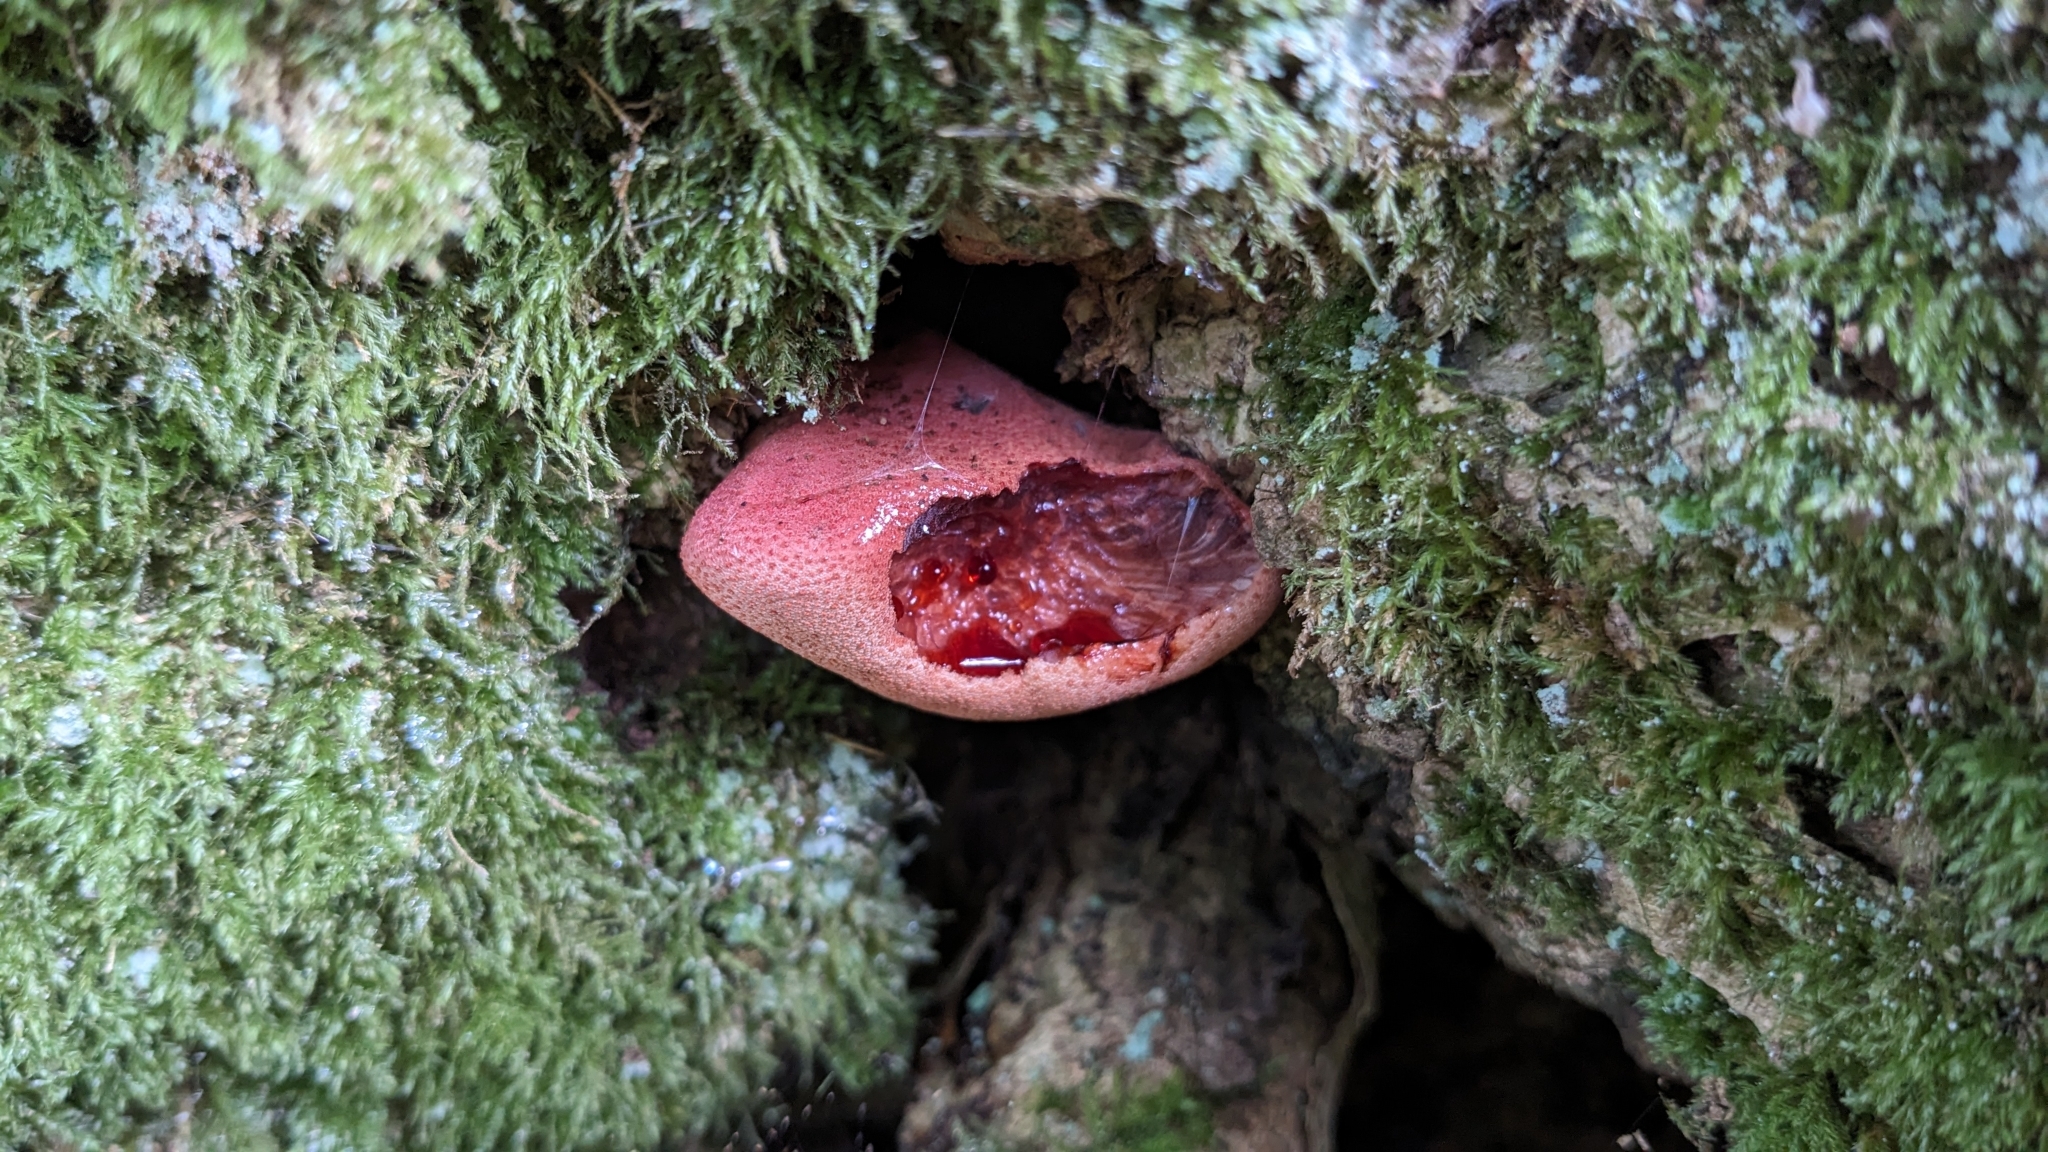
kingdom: Fungi
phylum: Basidiomycota
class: Agaricomycetes
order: Agaricales
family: Fistulinaceae
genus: Fistulina
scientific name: Fistulina hepatica
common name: Beef-steak fungus
